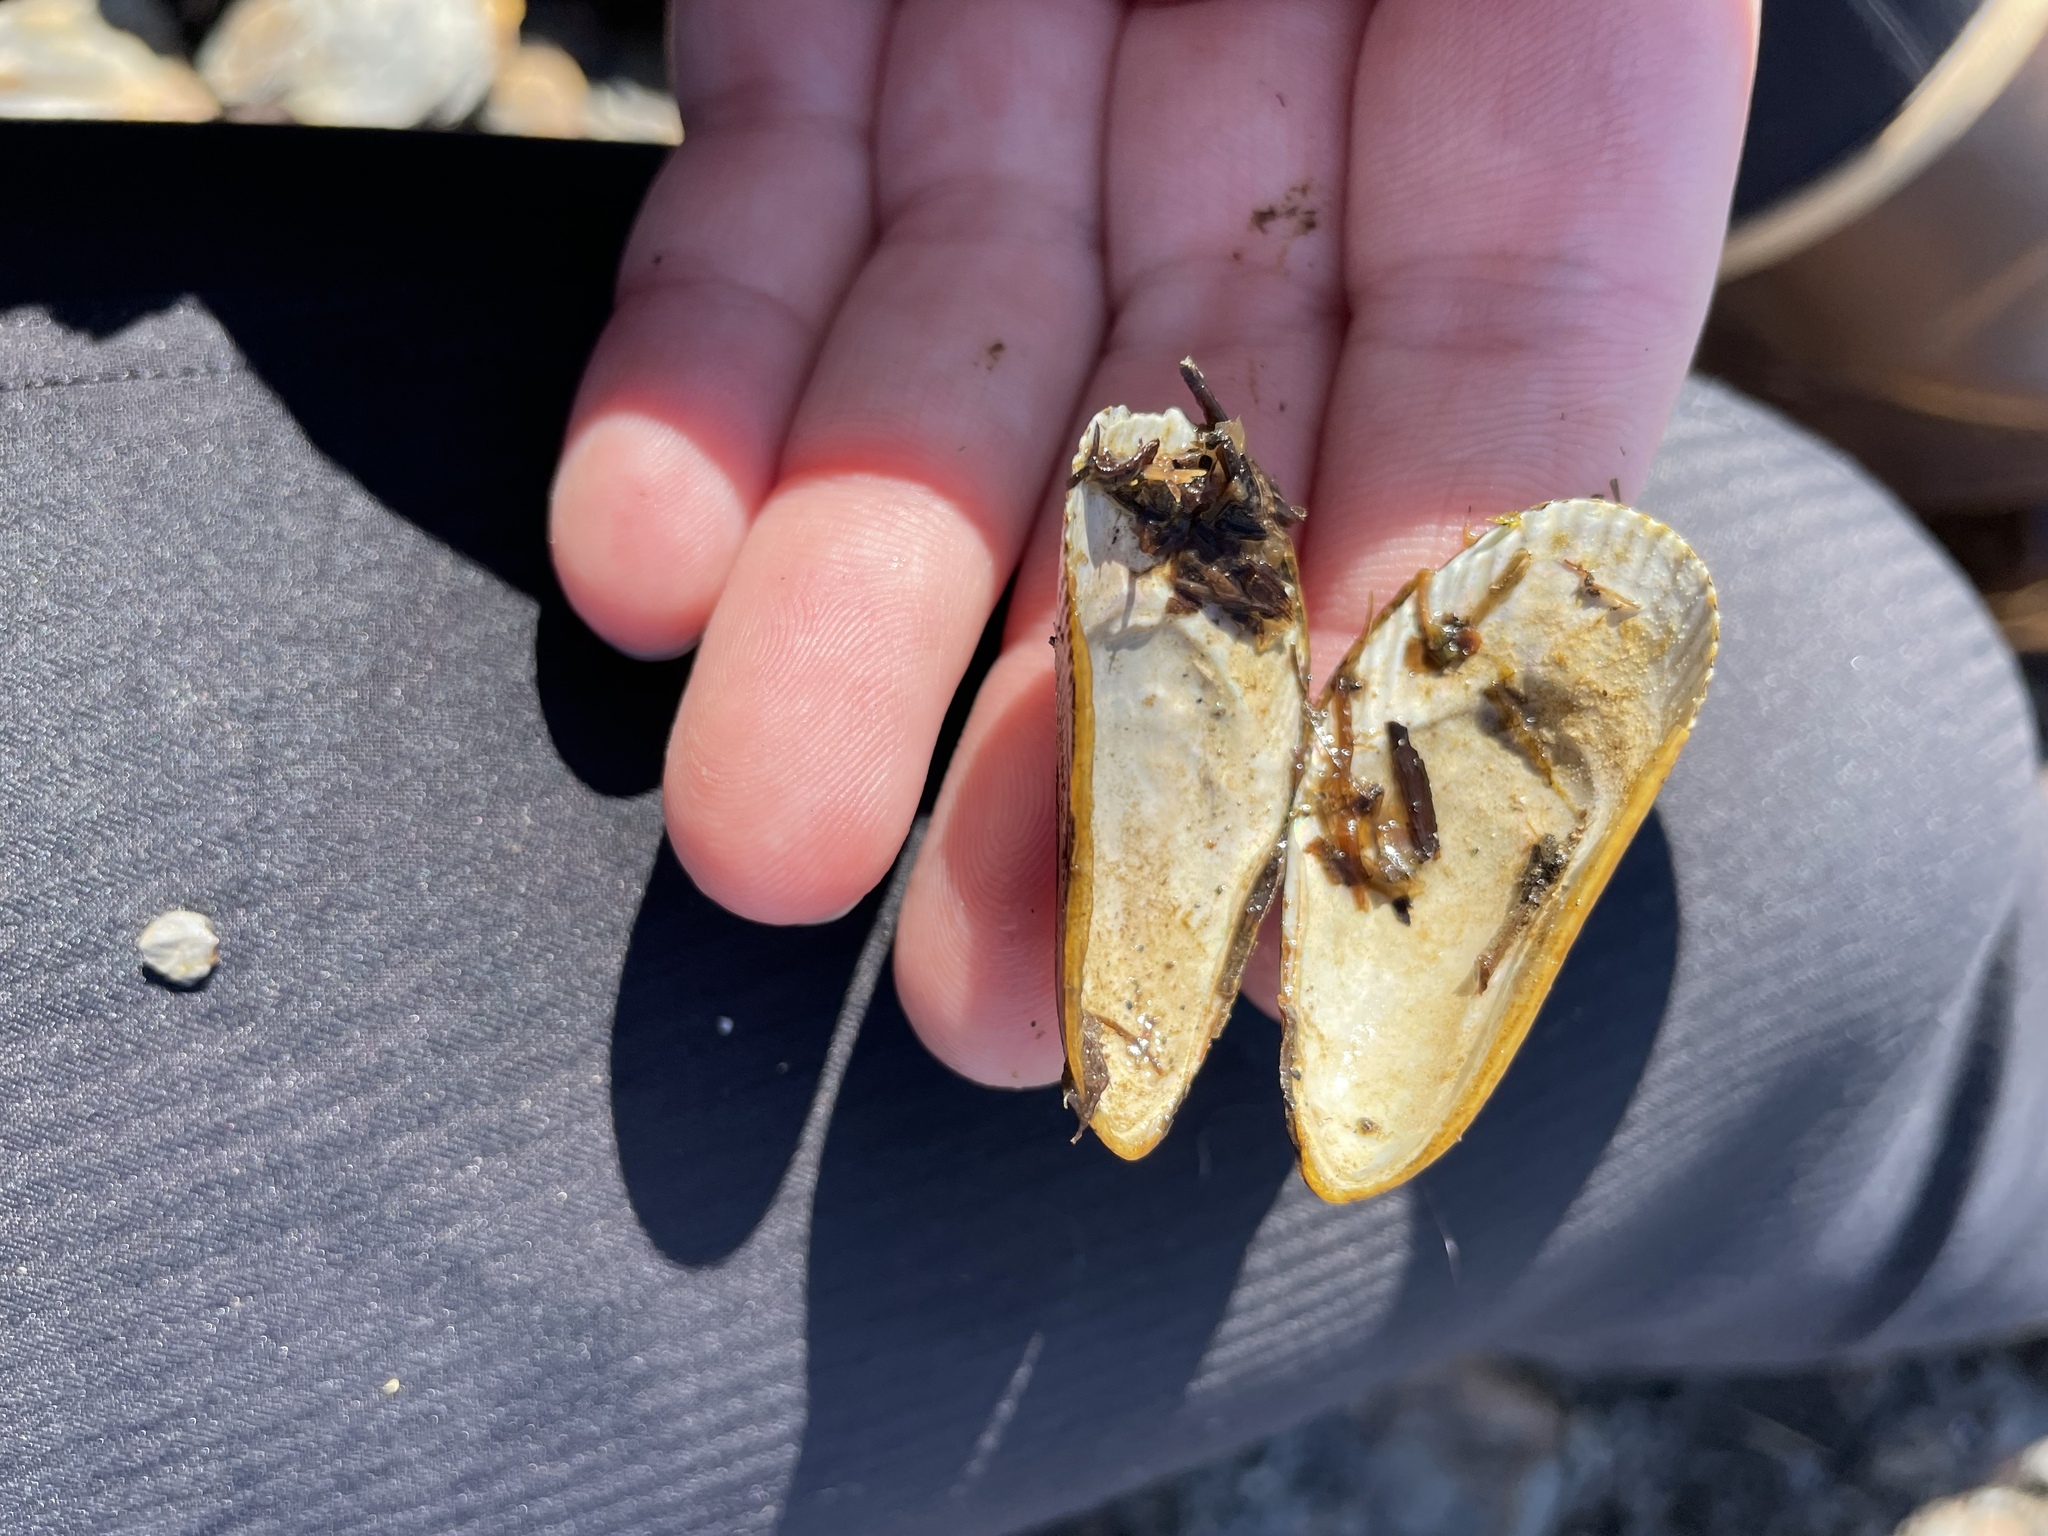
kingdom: Animalia
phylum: Mollusca
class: Bivalvia
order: Mytilida
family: Mytilidae
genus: Geukensia
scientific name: Geukensia demissa
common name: Ribbed mussel
